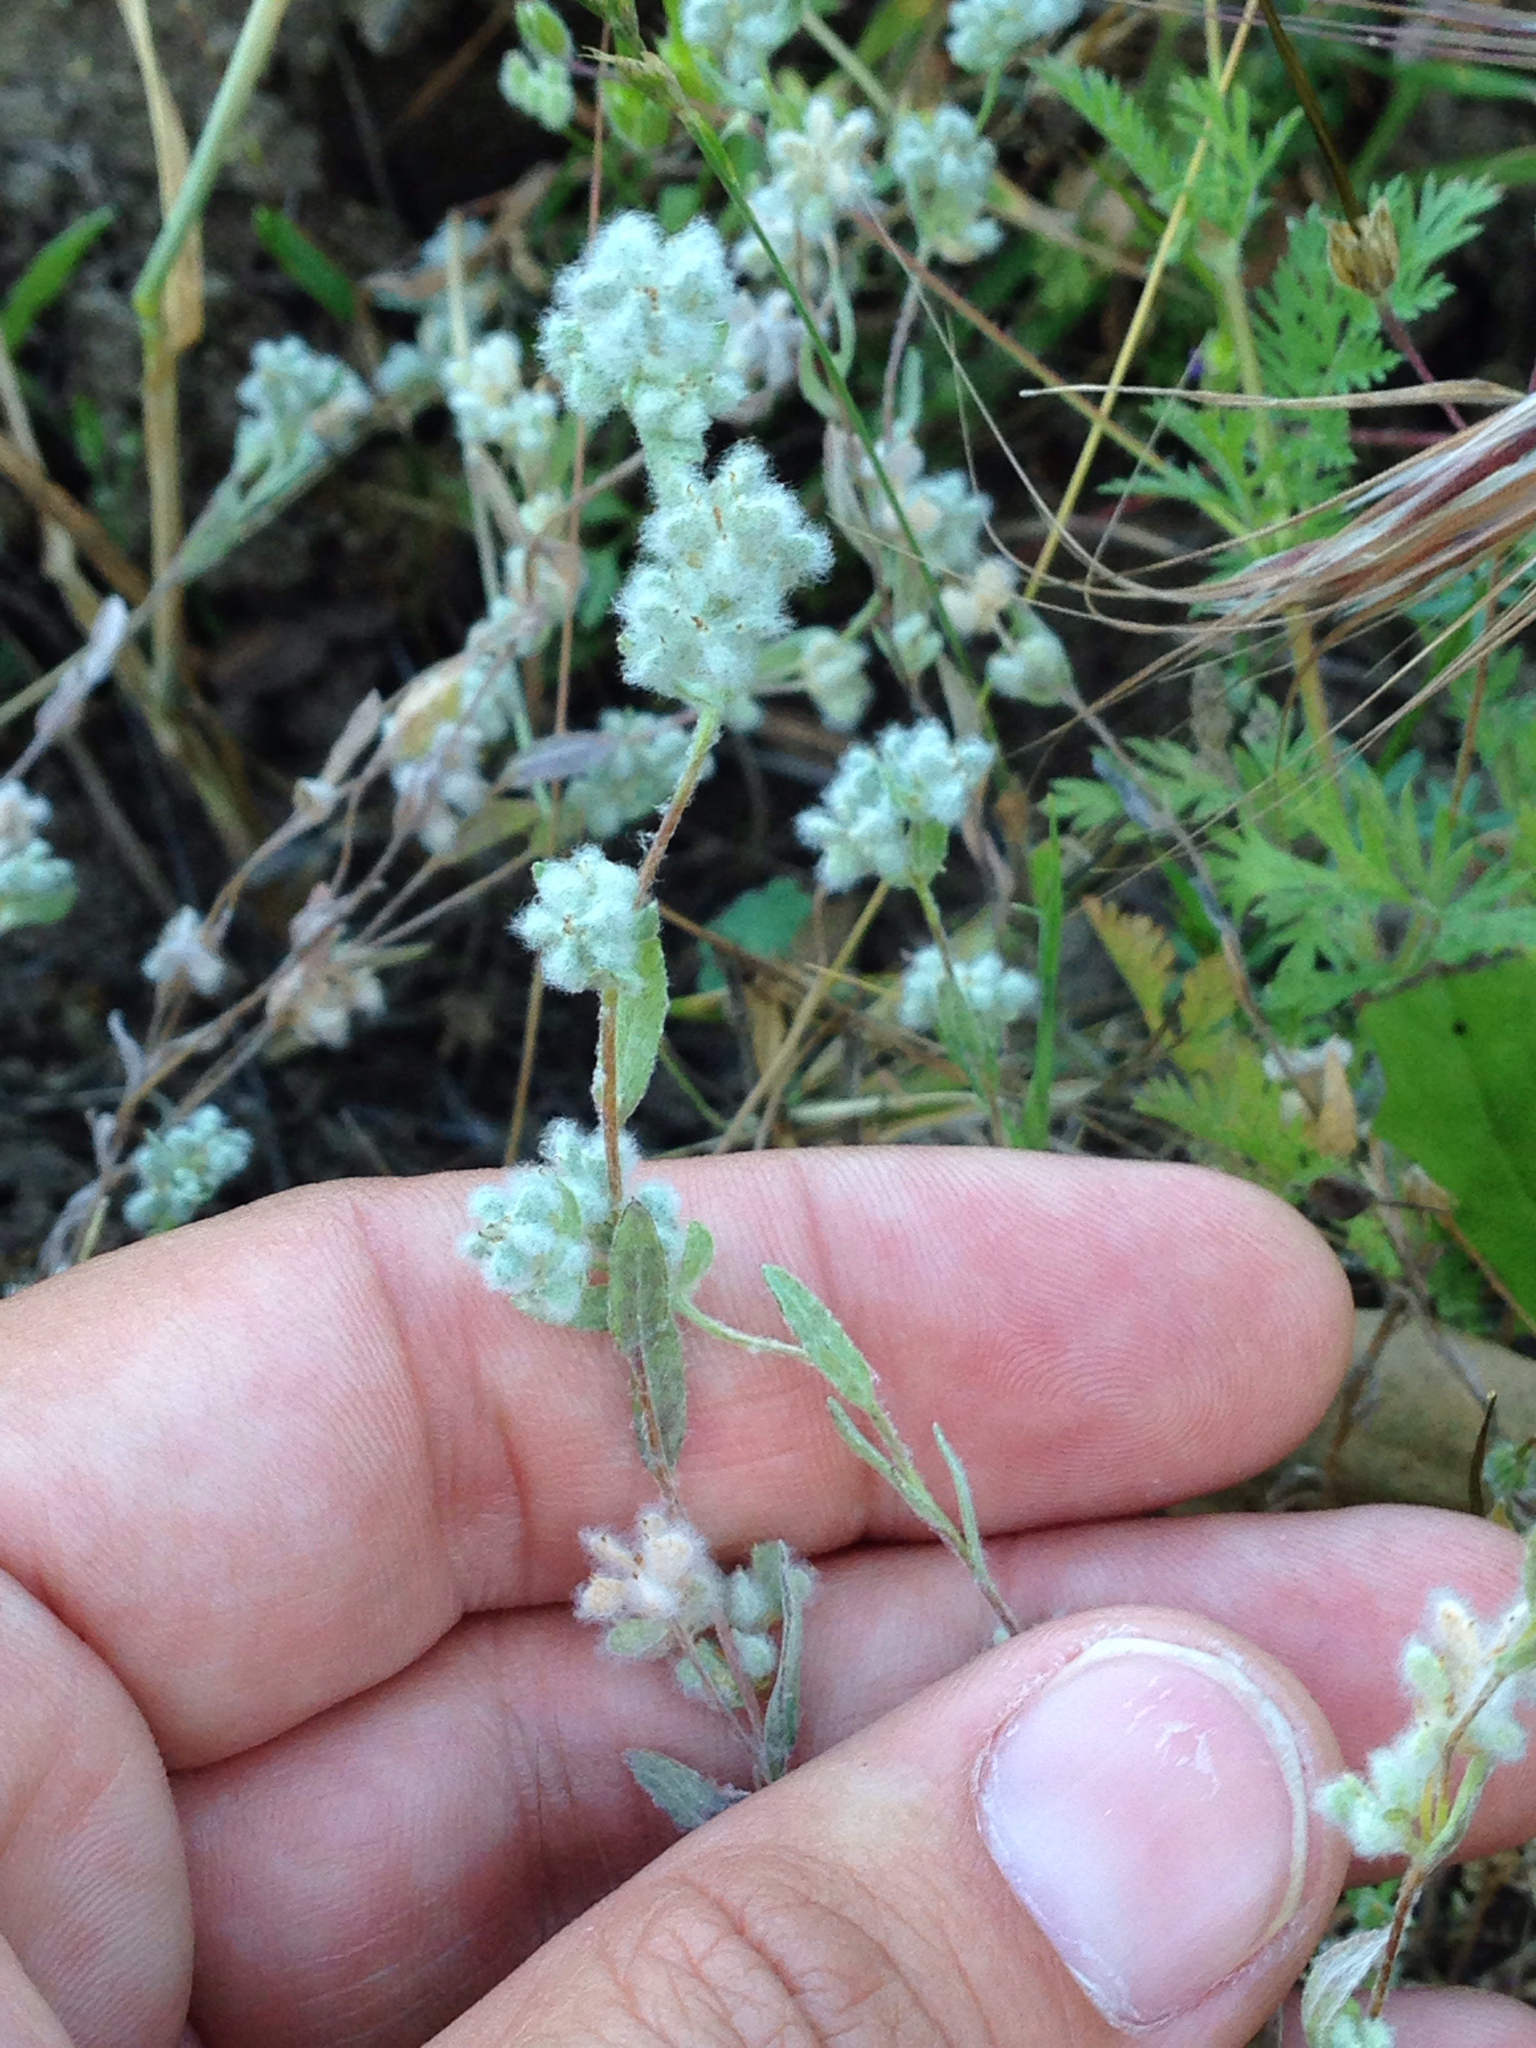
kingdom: Plantae
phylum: Tracheophyta
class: Magnoliopsida
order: Asterales
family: Asteraceae
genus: Bombycilaena
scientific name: Bombycilaena californica
